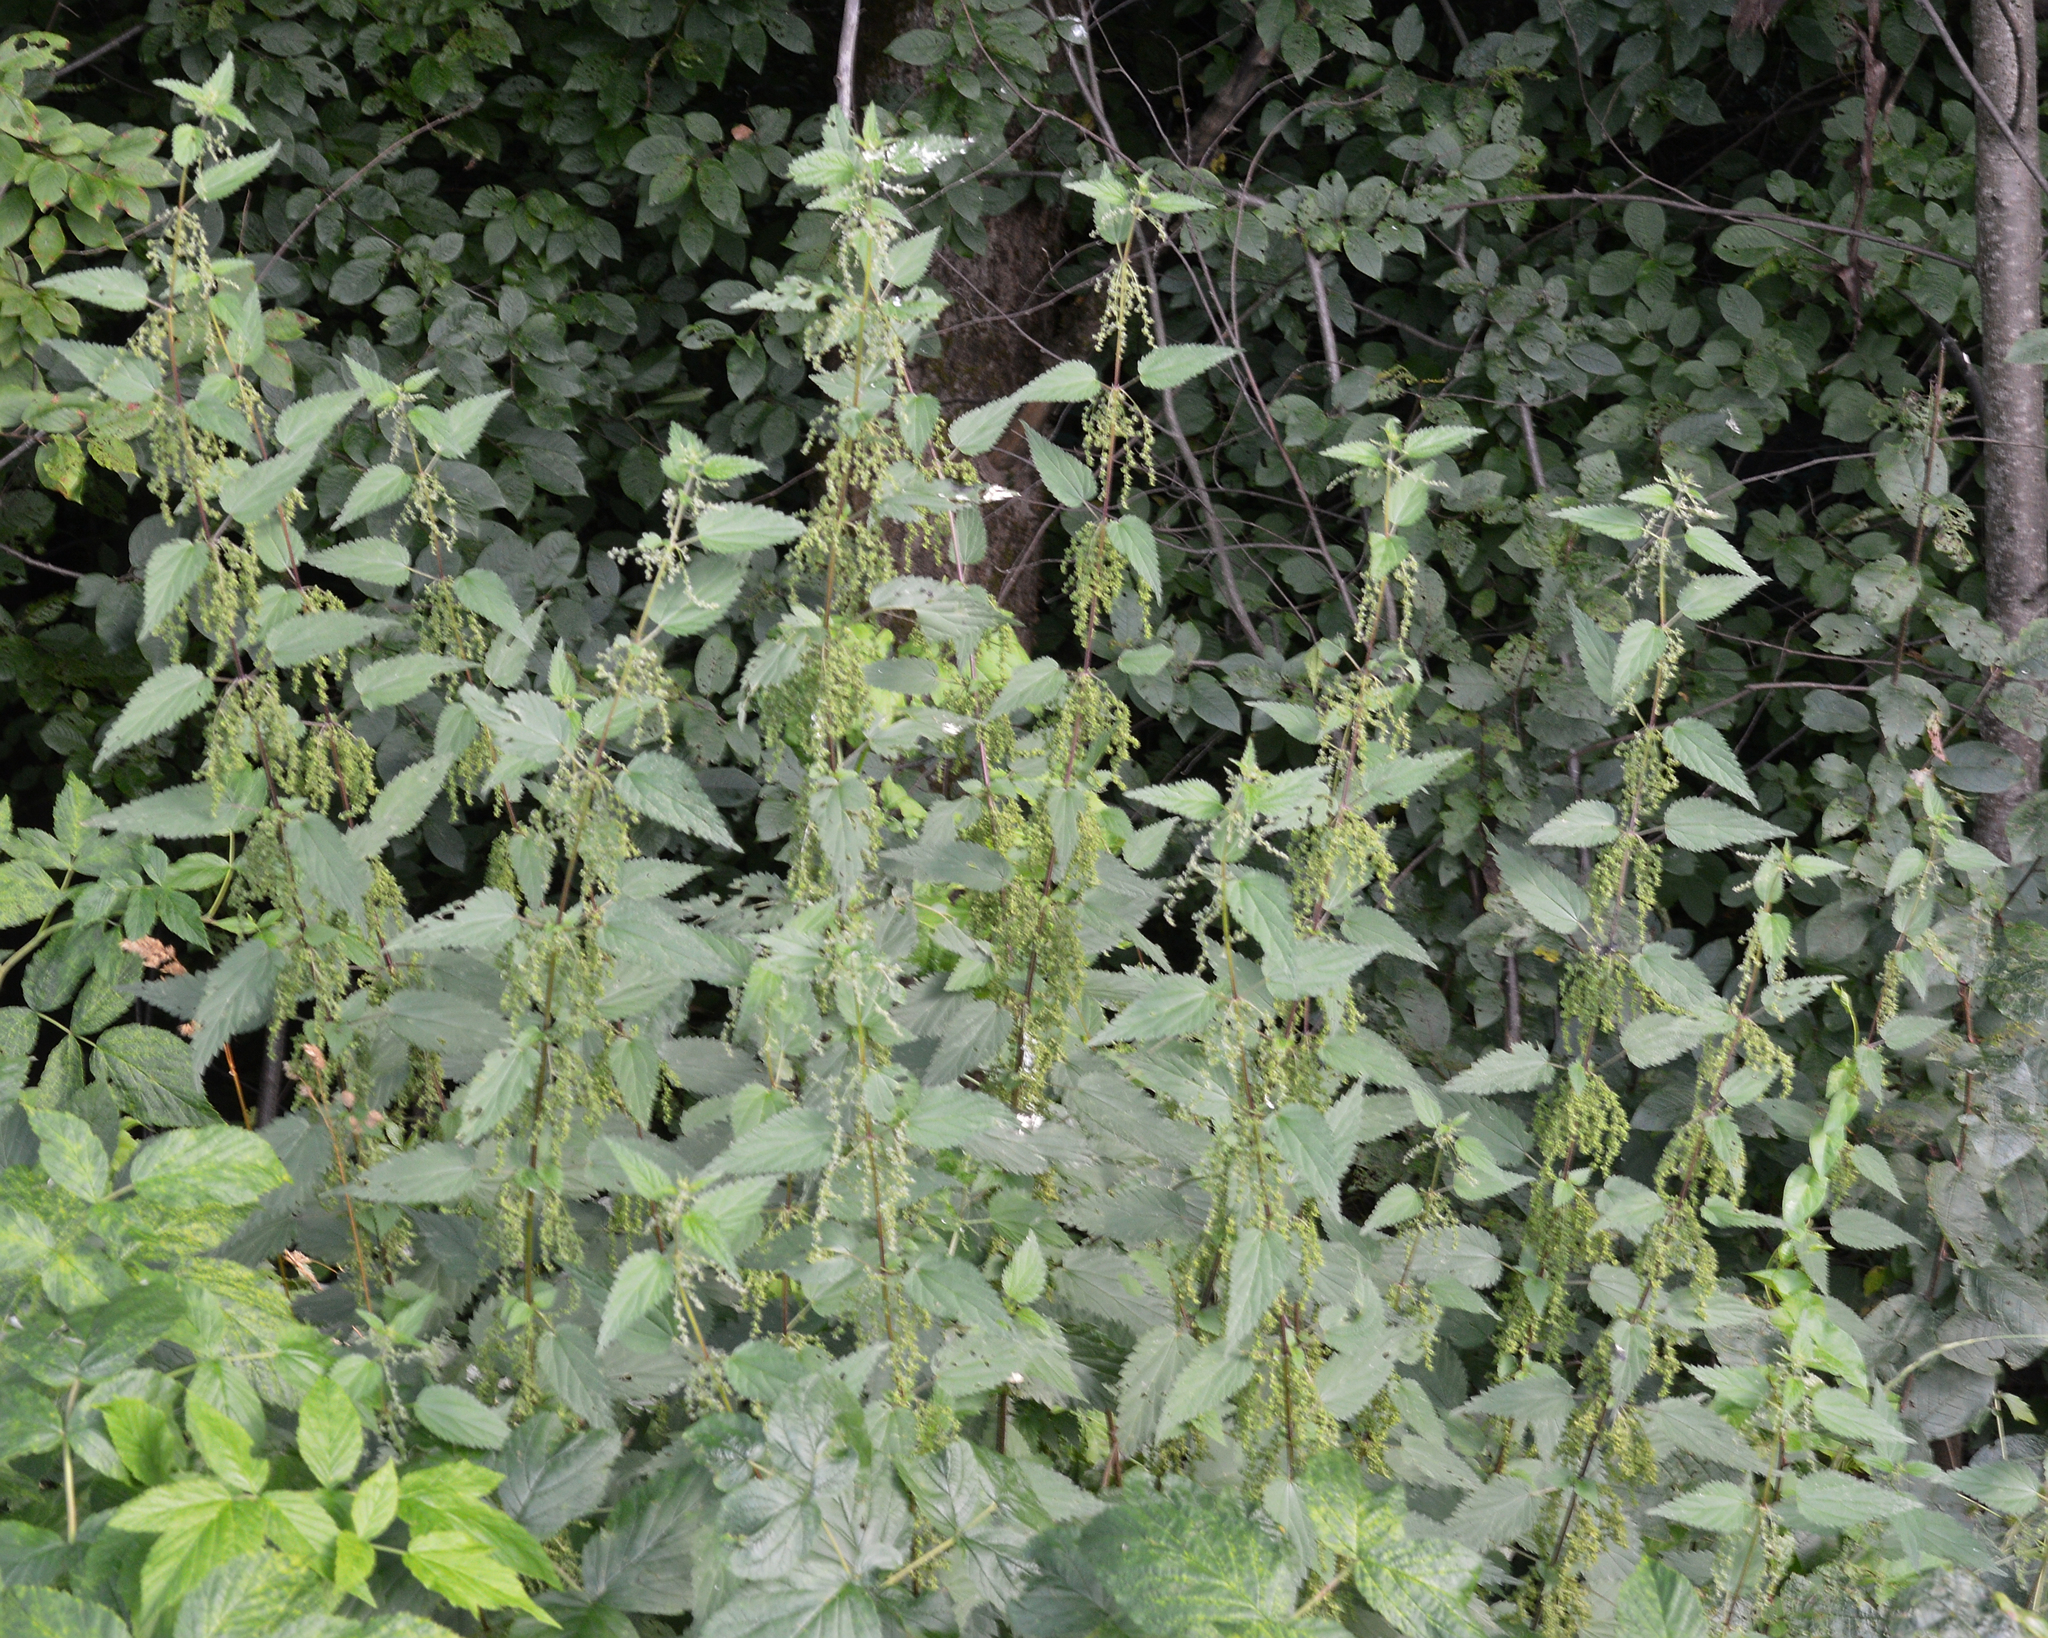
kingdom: Plantae
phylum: Tracheophyta
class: Magnoliopsida
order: Rosales
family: Urticaceae
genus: Urtica
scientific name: Urtica dioica
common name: Common nettle
